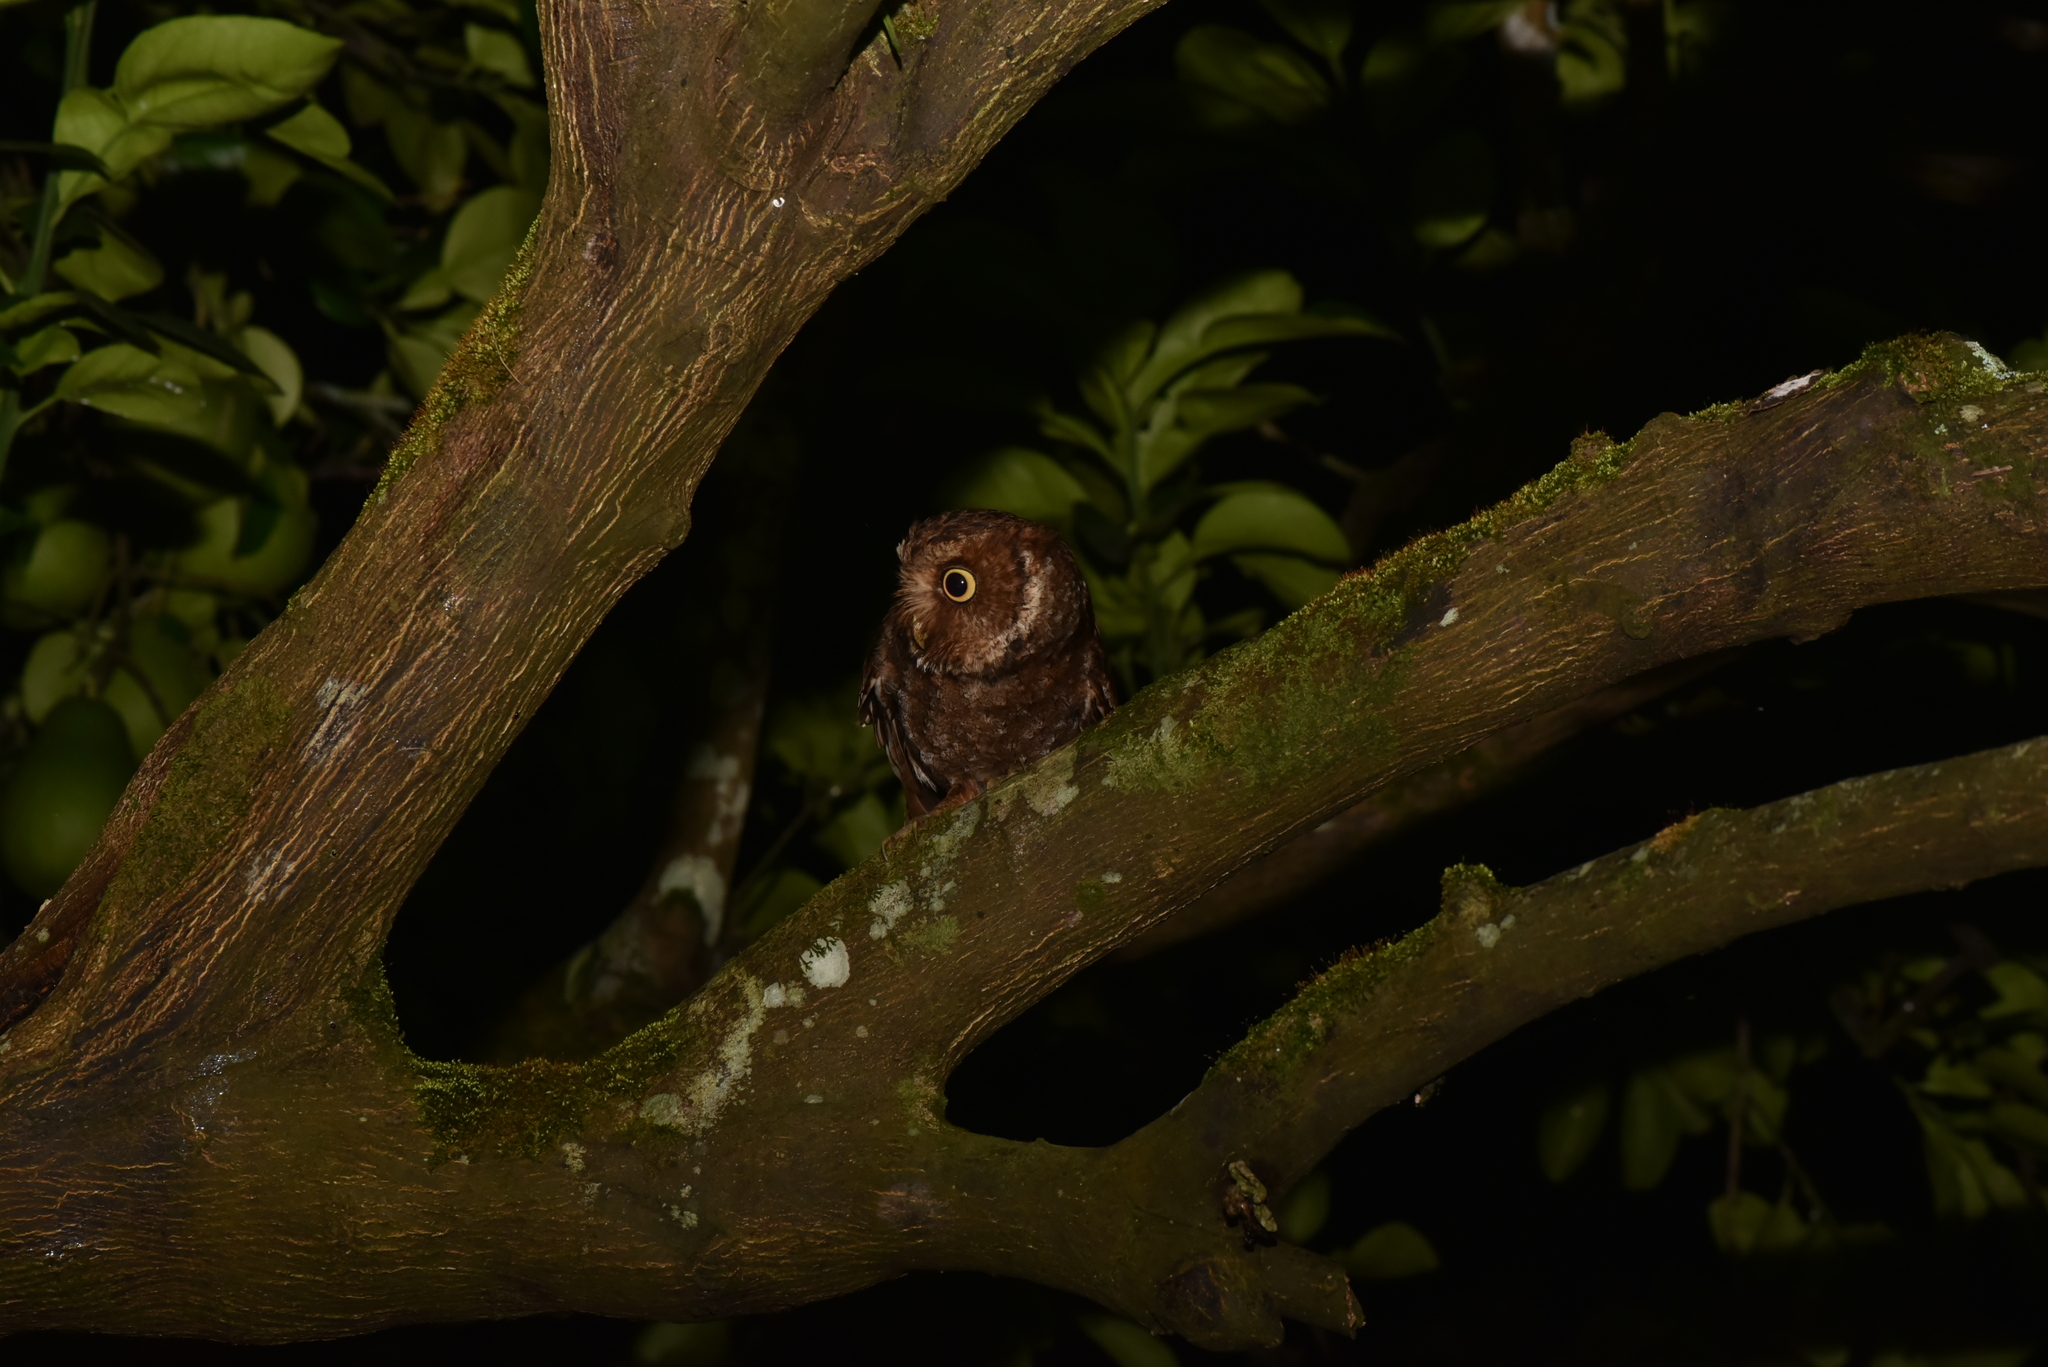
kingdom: Animalia
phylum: Chordata
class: Aves
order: Strigiformes
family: Strigidae
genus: Otus
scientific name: Otus spilocephalus
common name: Mountain scops owl
